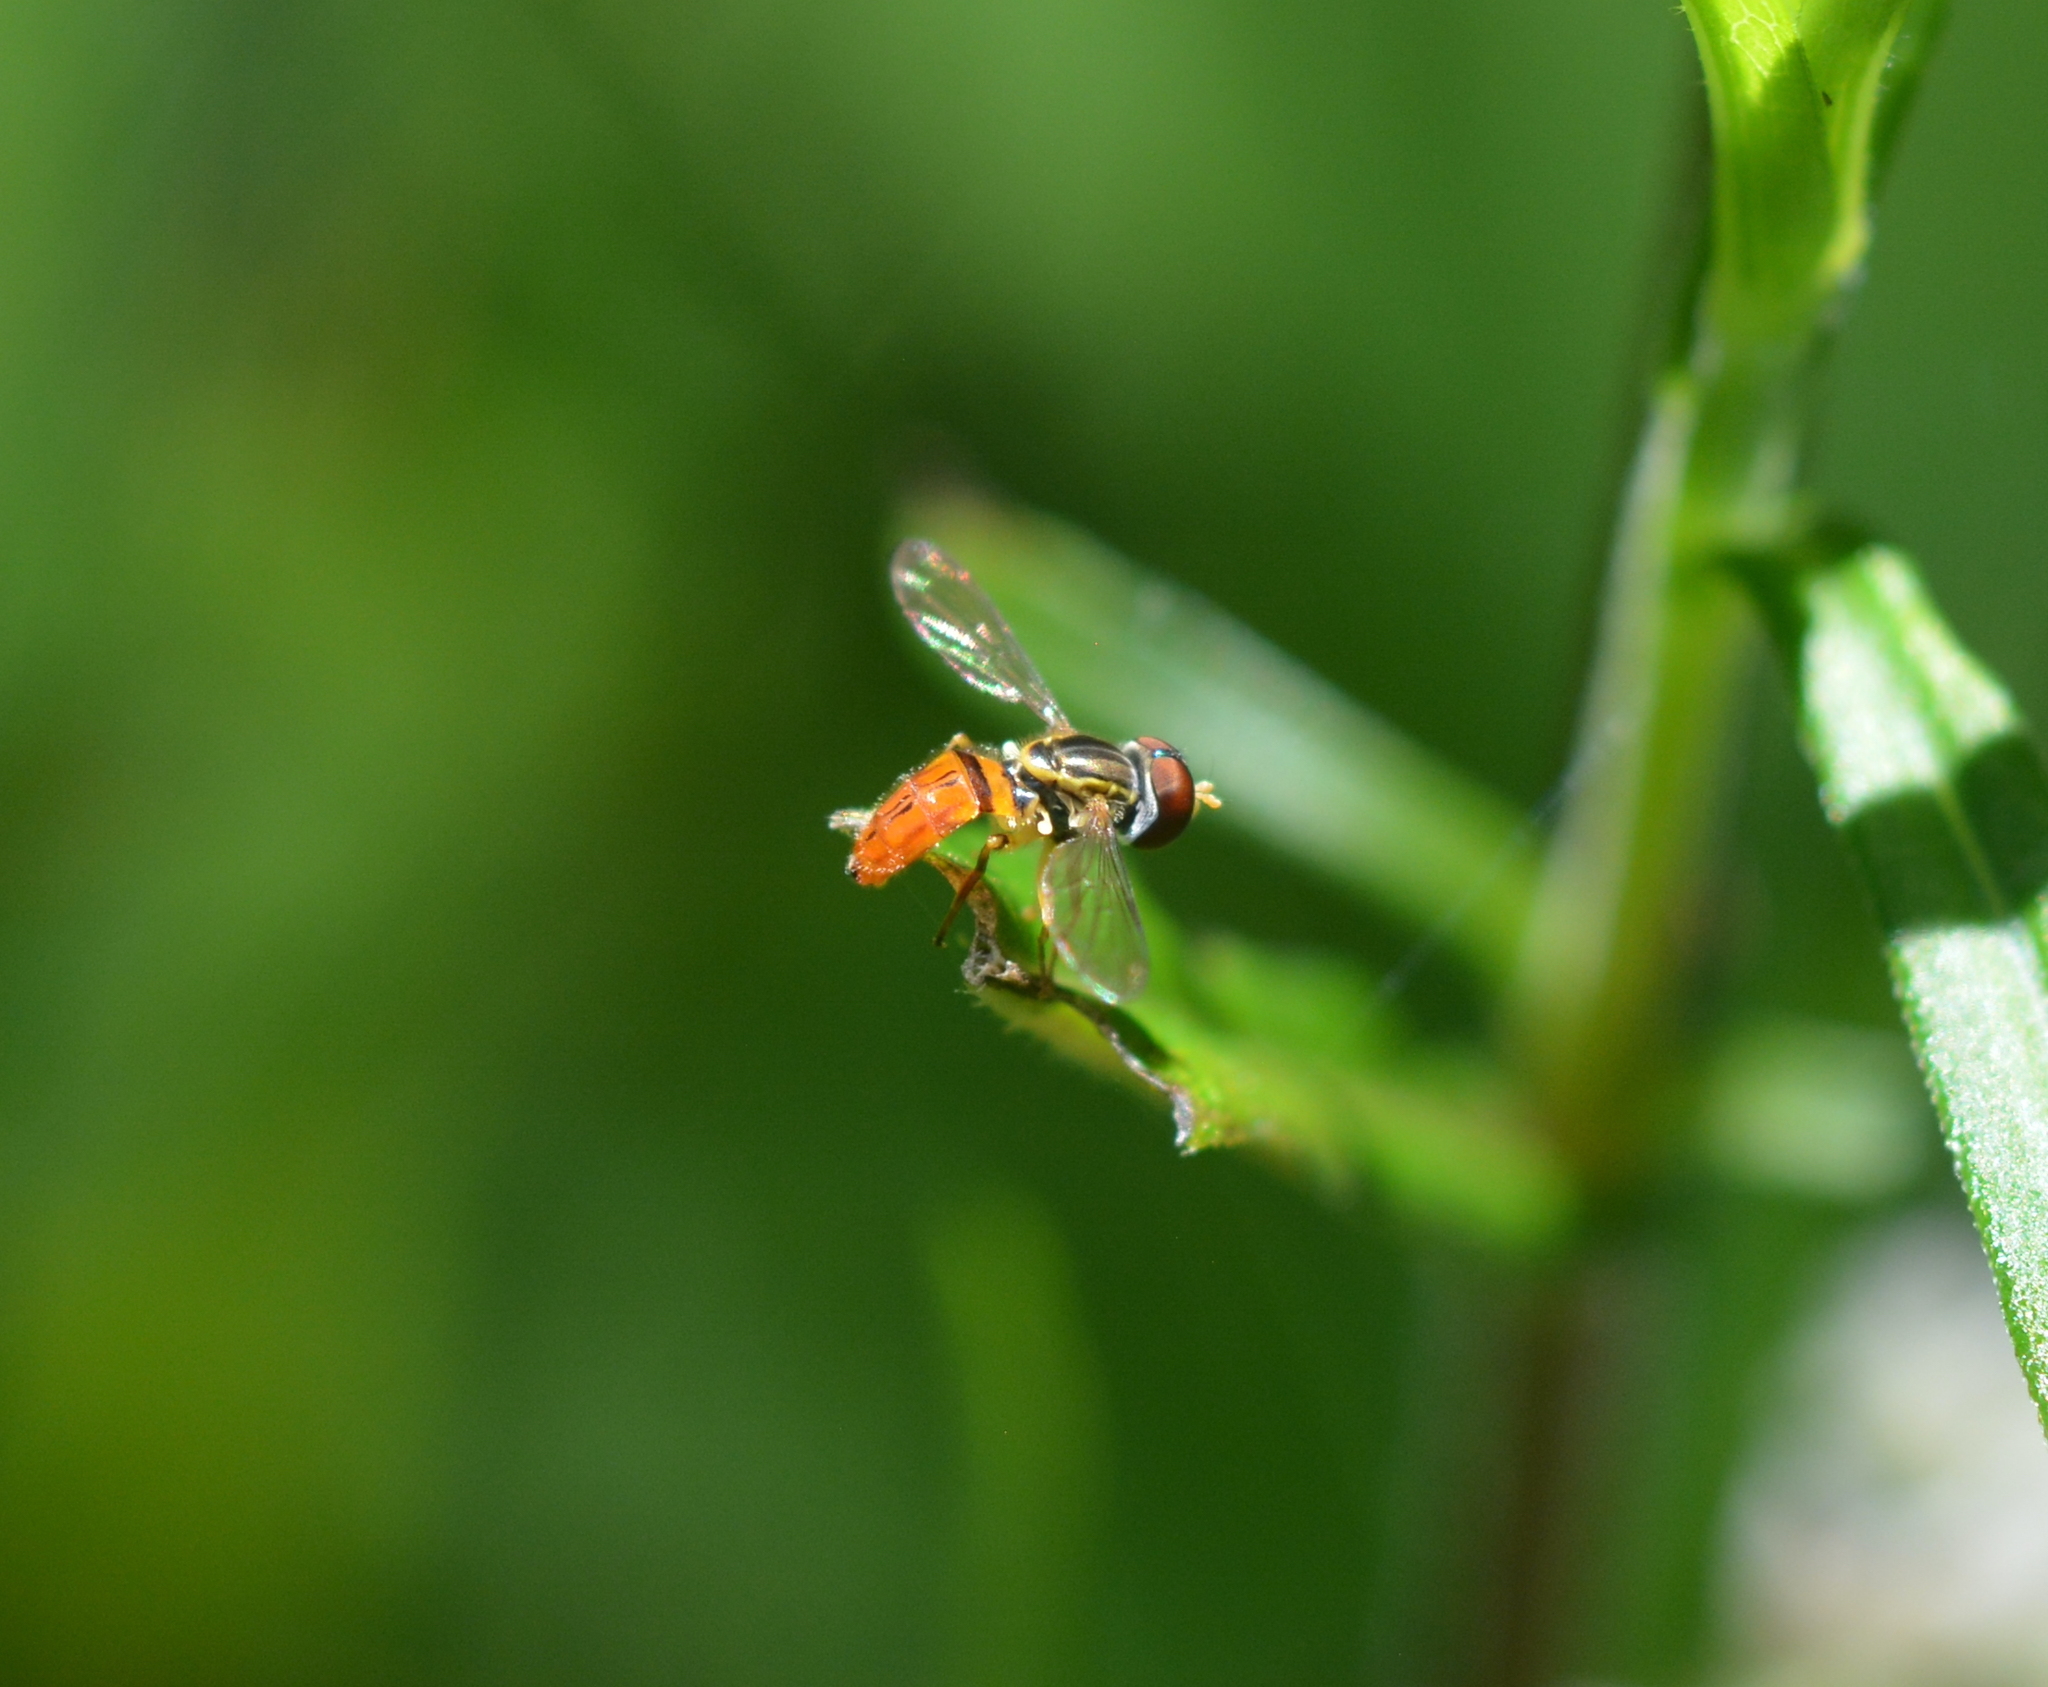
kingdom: Animalia
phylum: Arthropoda
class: Insecta
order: Diptera
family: Syrphidae
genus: Toxomerus
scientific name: Toxomerus boscii
